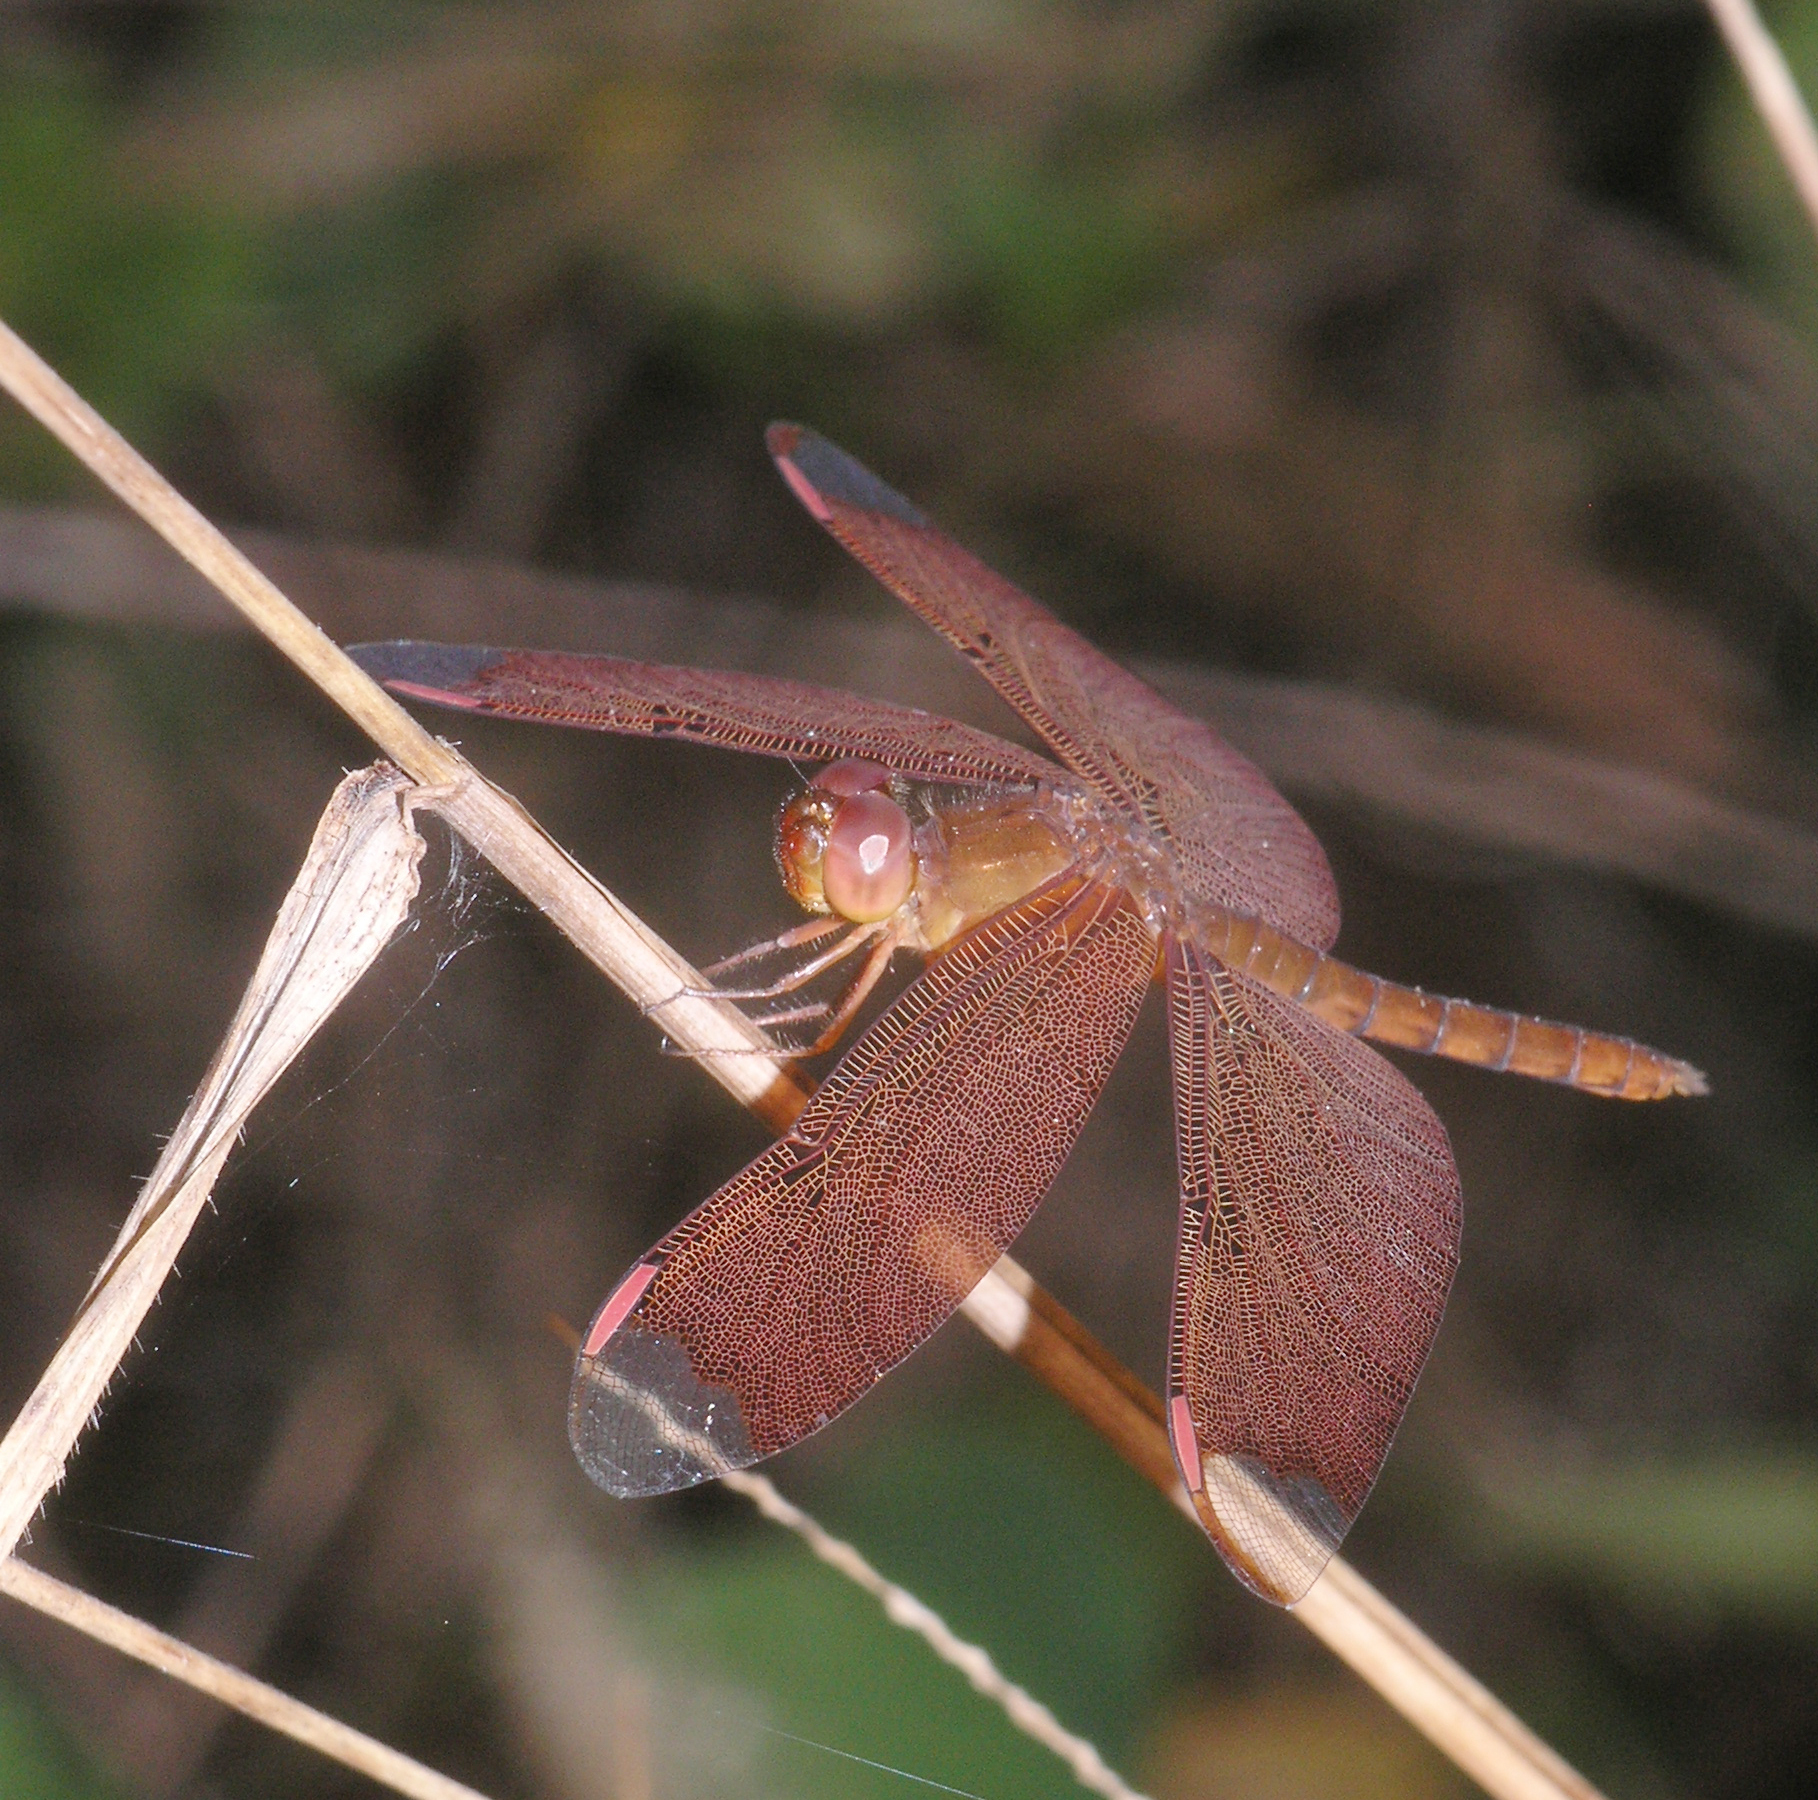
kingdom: Animalia
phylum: Arthropoda
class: Insecta
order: Odonata
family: Libellulidae
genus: Neurothemis
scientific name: Neurothemis fulvia
